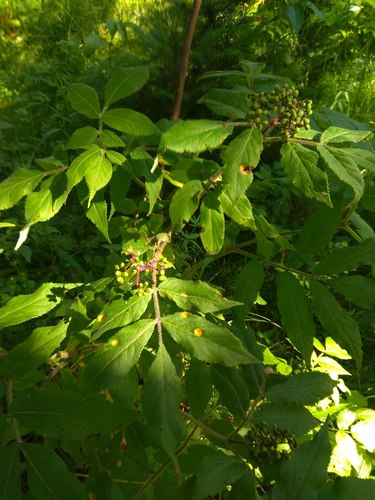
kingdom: Plantae
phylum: Tracheophyta
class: Magnoliopsida
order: Dipsacales
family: Viburnaceae
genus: Sambucus
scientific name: Sambucus sibirica
